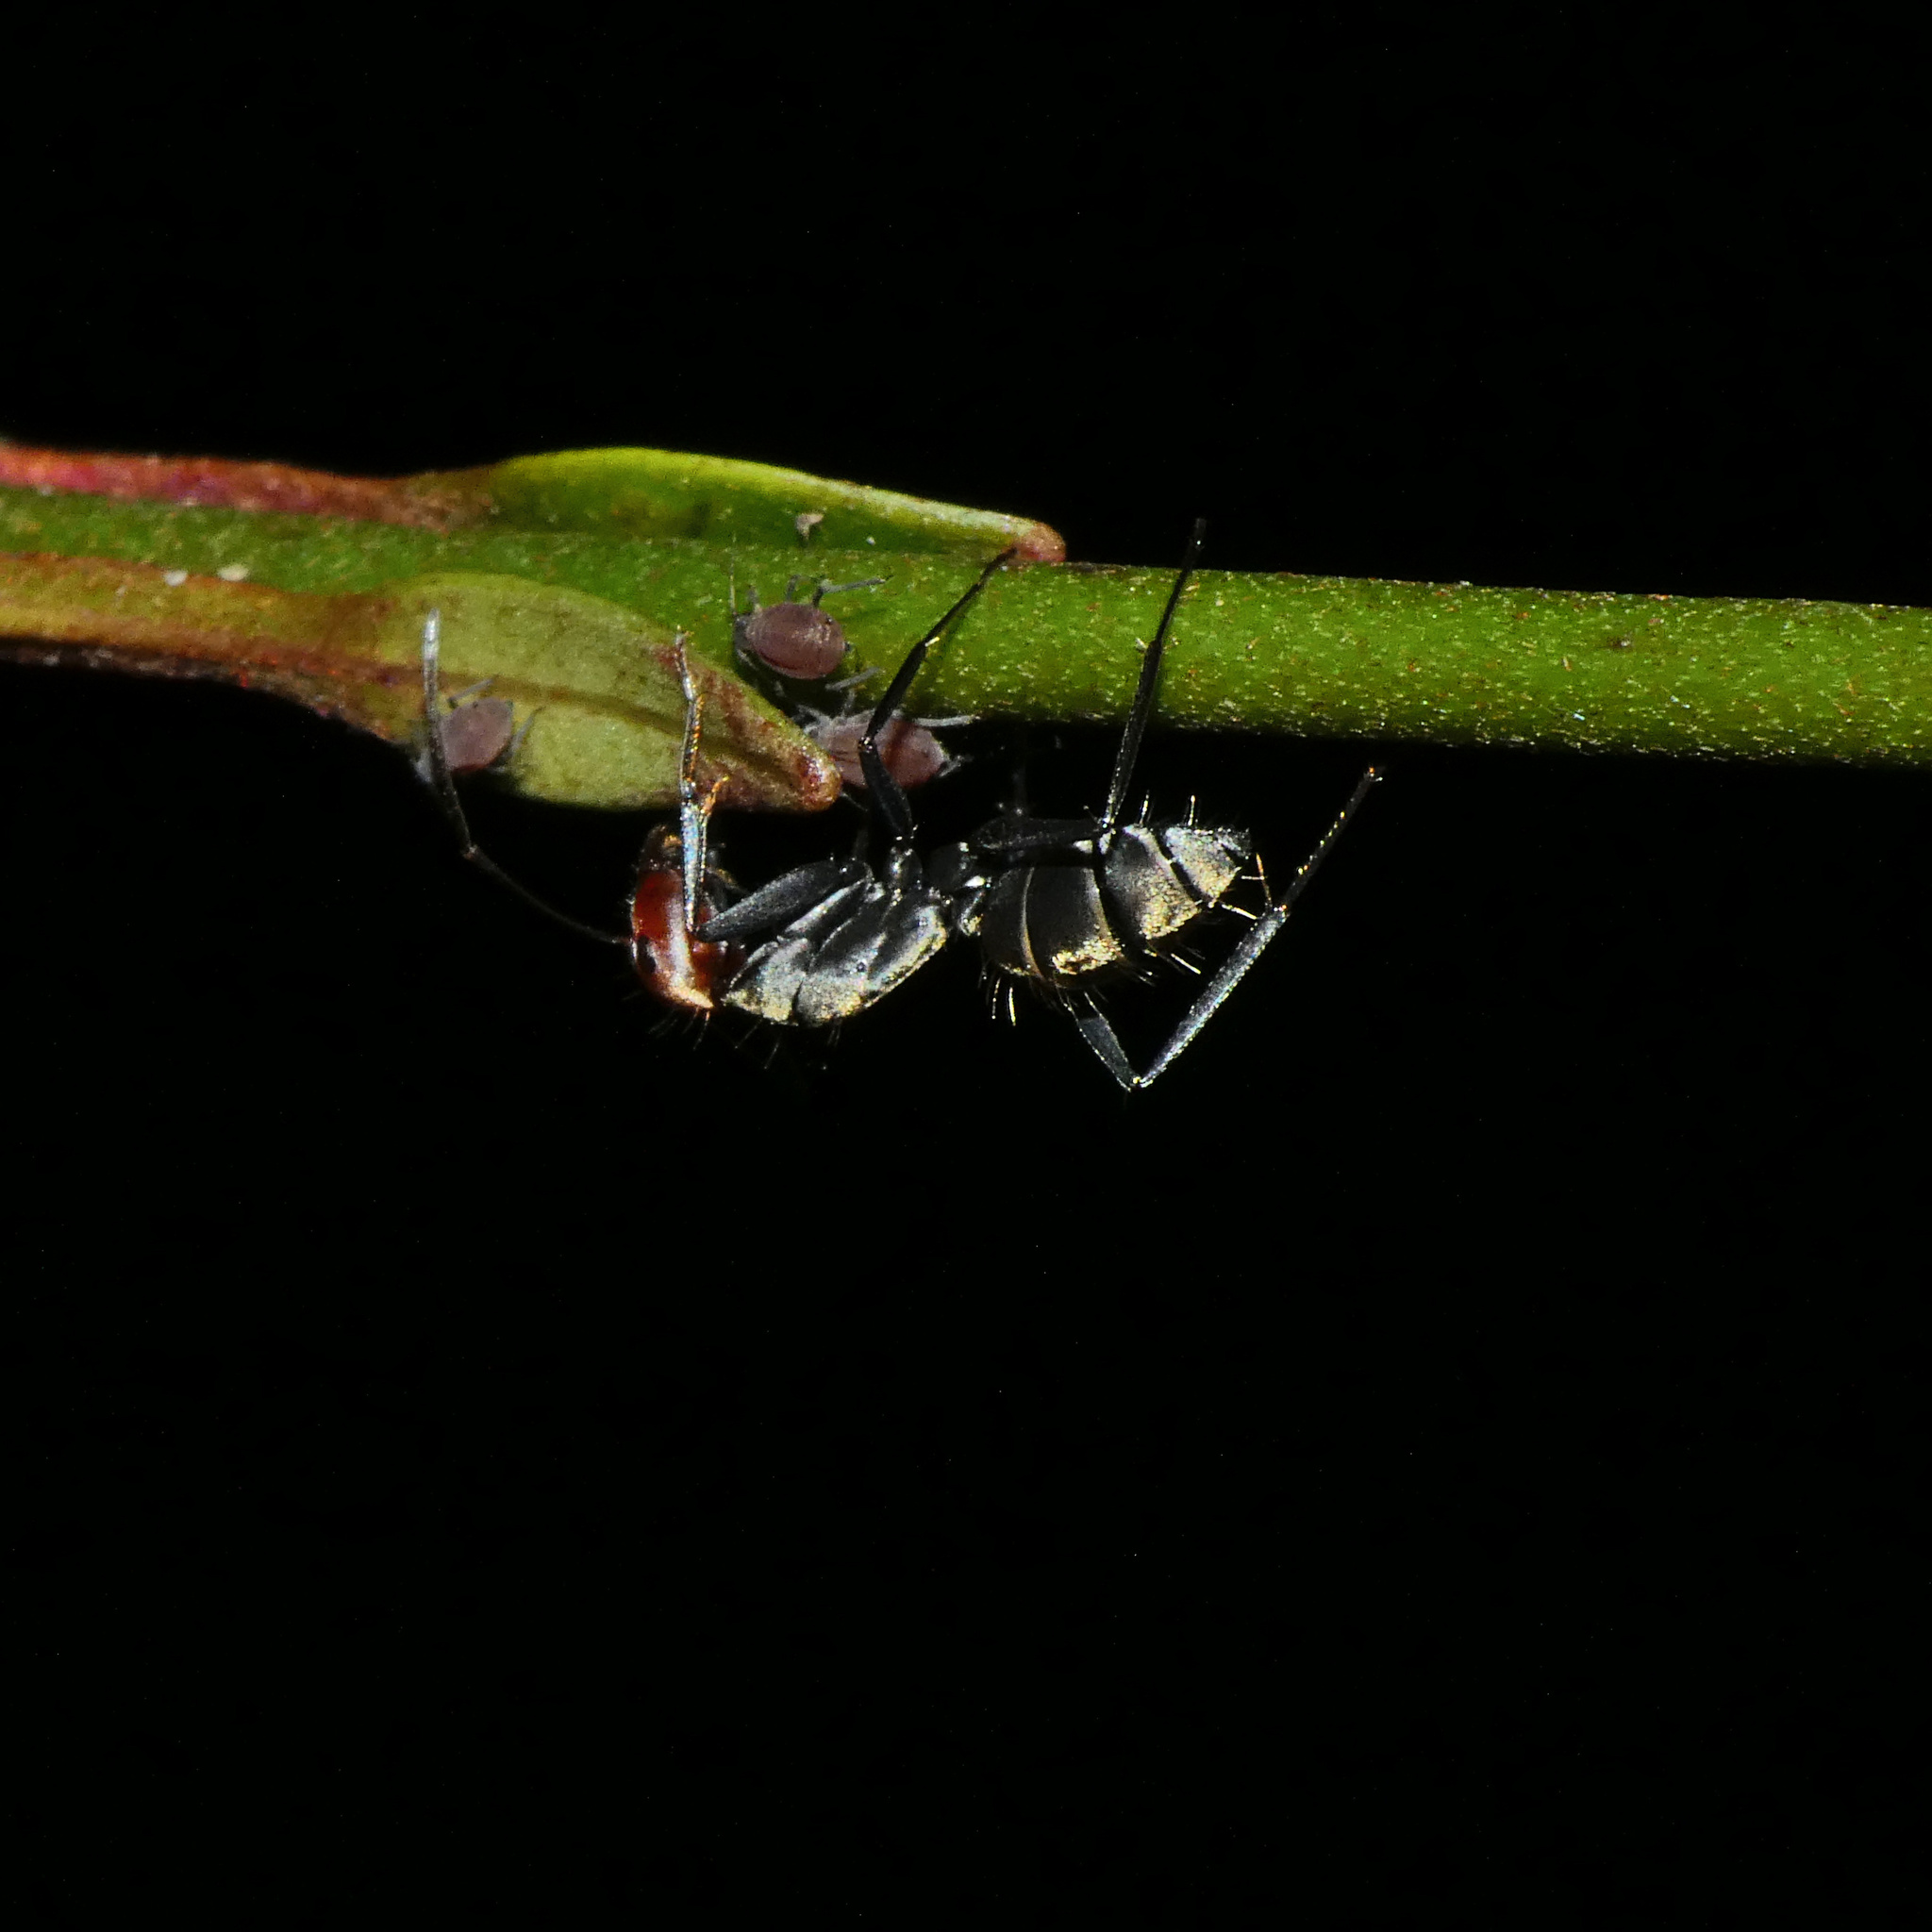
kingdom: Animalia
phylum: Arthropoda
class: Insecta
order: Hymenoptera
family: Formicidae
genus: Camponotus
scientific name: Camponotus rufoglaucus
